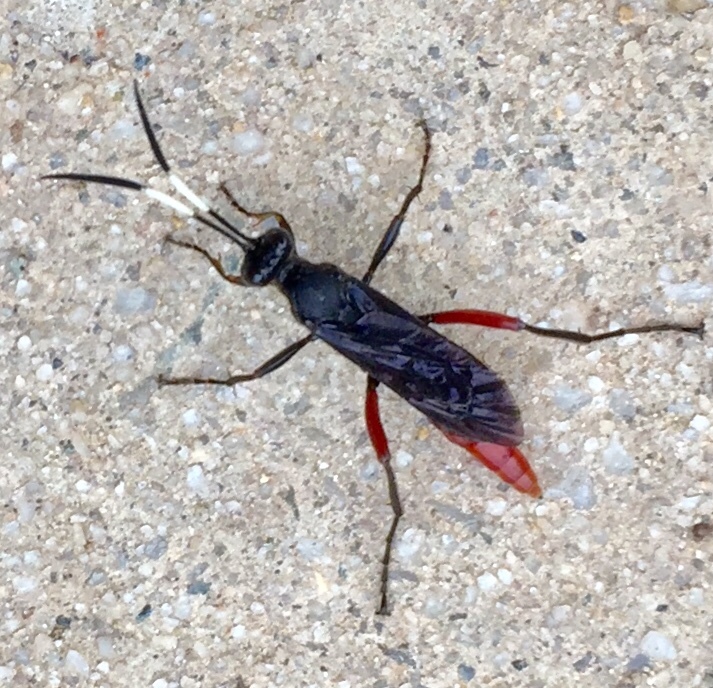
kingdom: Animalia
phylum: Arthropoda
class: Insecta
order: Hymenoptera
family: Ichneumonidae
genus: Limonethe
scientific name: Limonethe maurator
